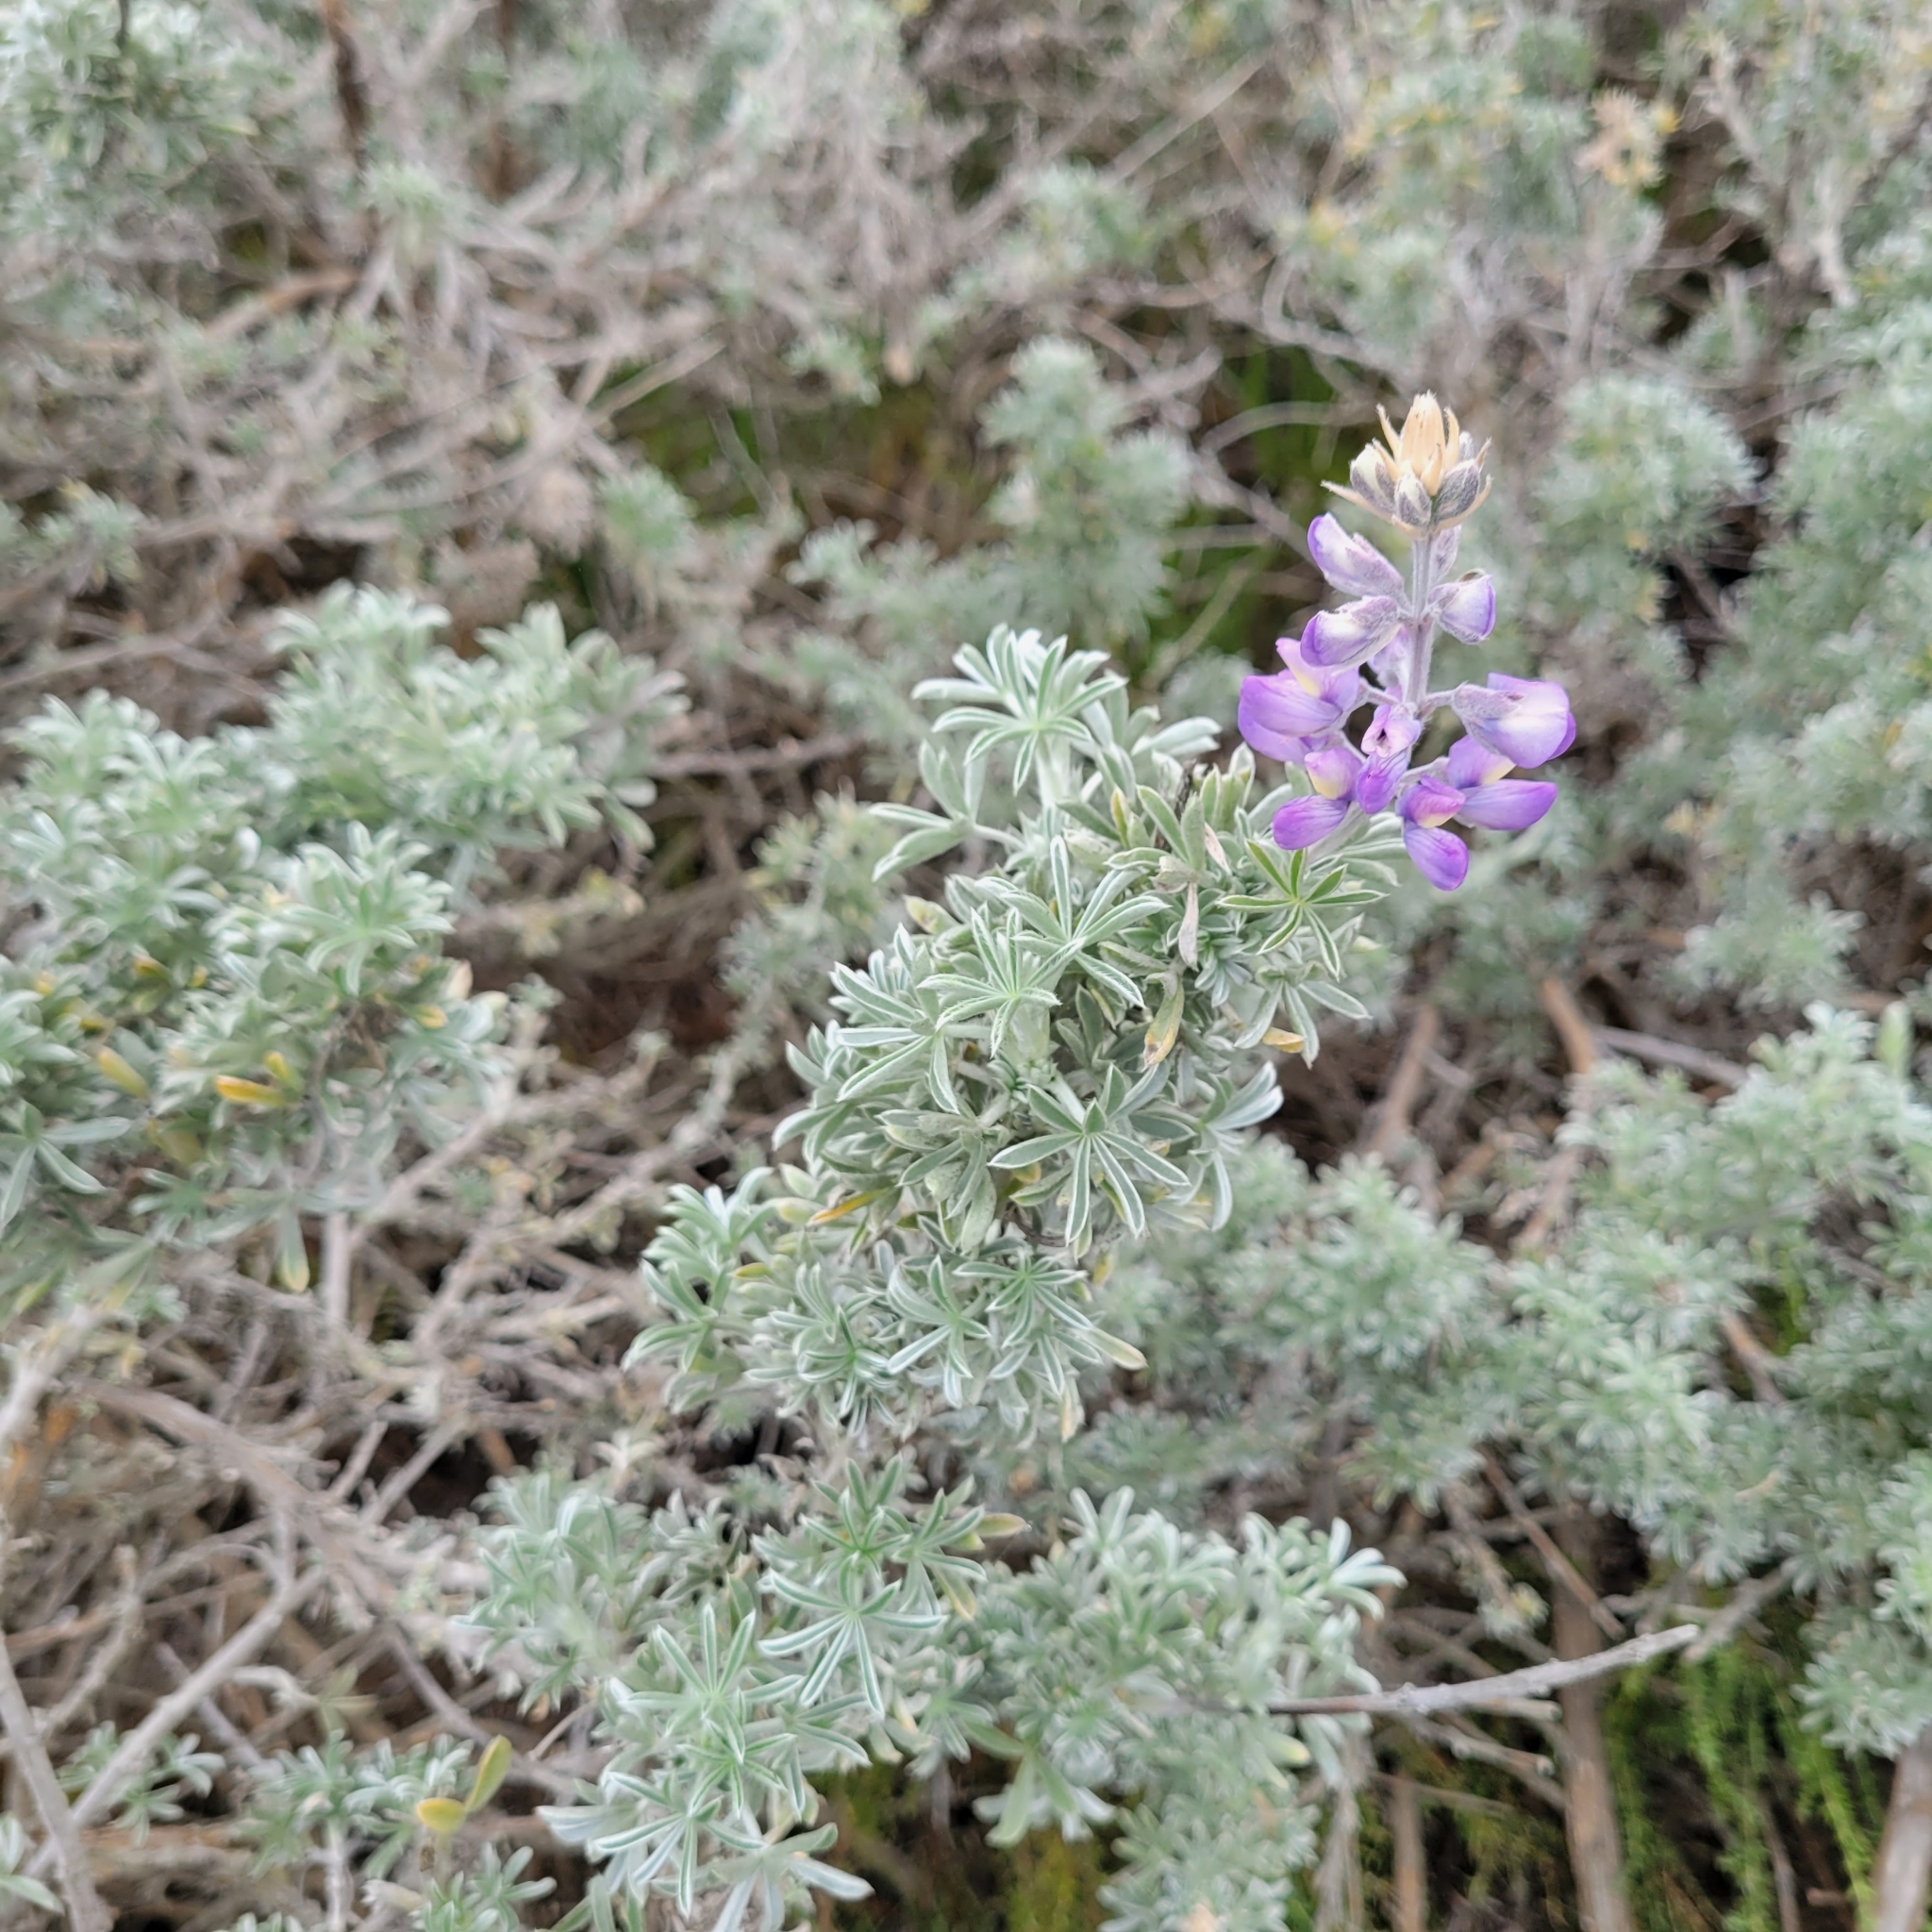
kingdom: Plantae
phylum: Tracheophyta
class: Magnoliopsida
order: Fabales
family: Fabaceae
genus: Lupinus
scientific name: Lupinus chamissonis
